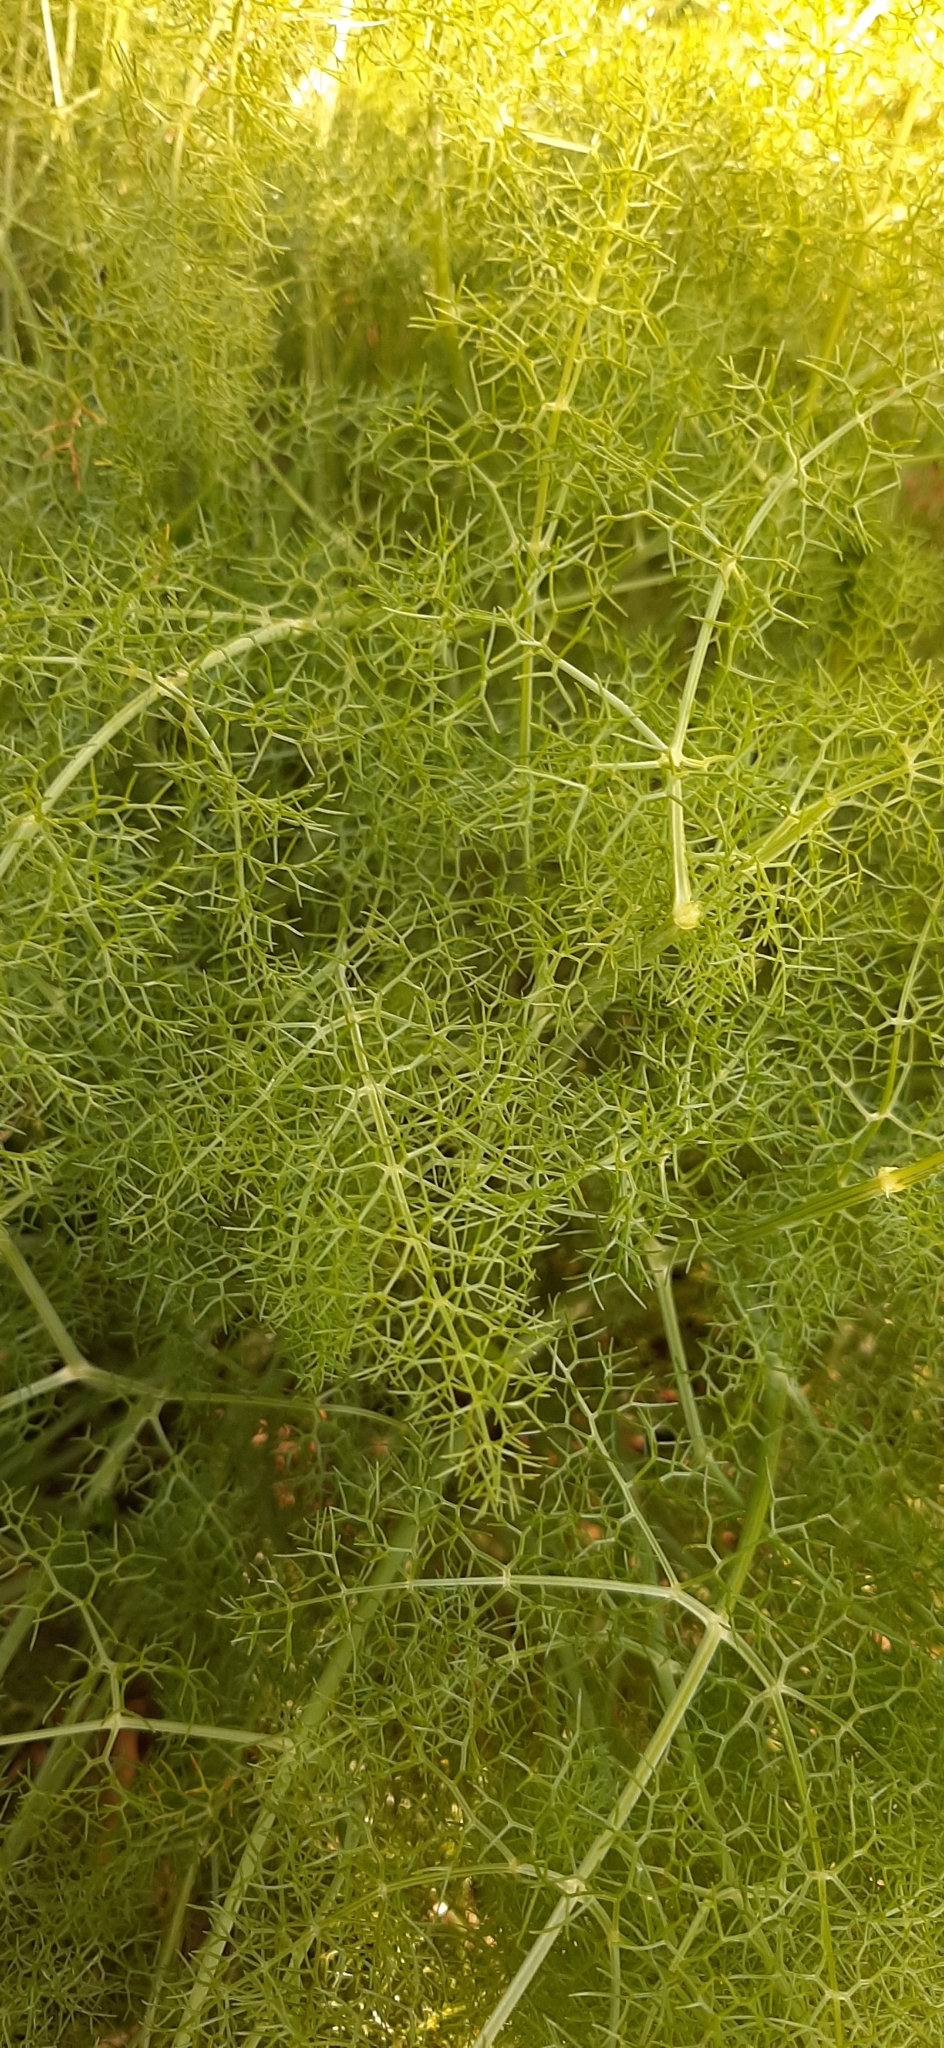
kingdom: Plantae
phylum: Tracheophyta
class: Magnoliopsida
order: Apiales
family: Apiaceae
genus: Foeniculum
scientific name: Foeniculum vulgare
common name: Fennel
